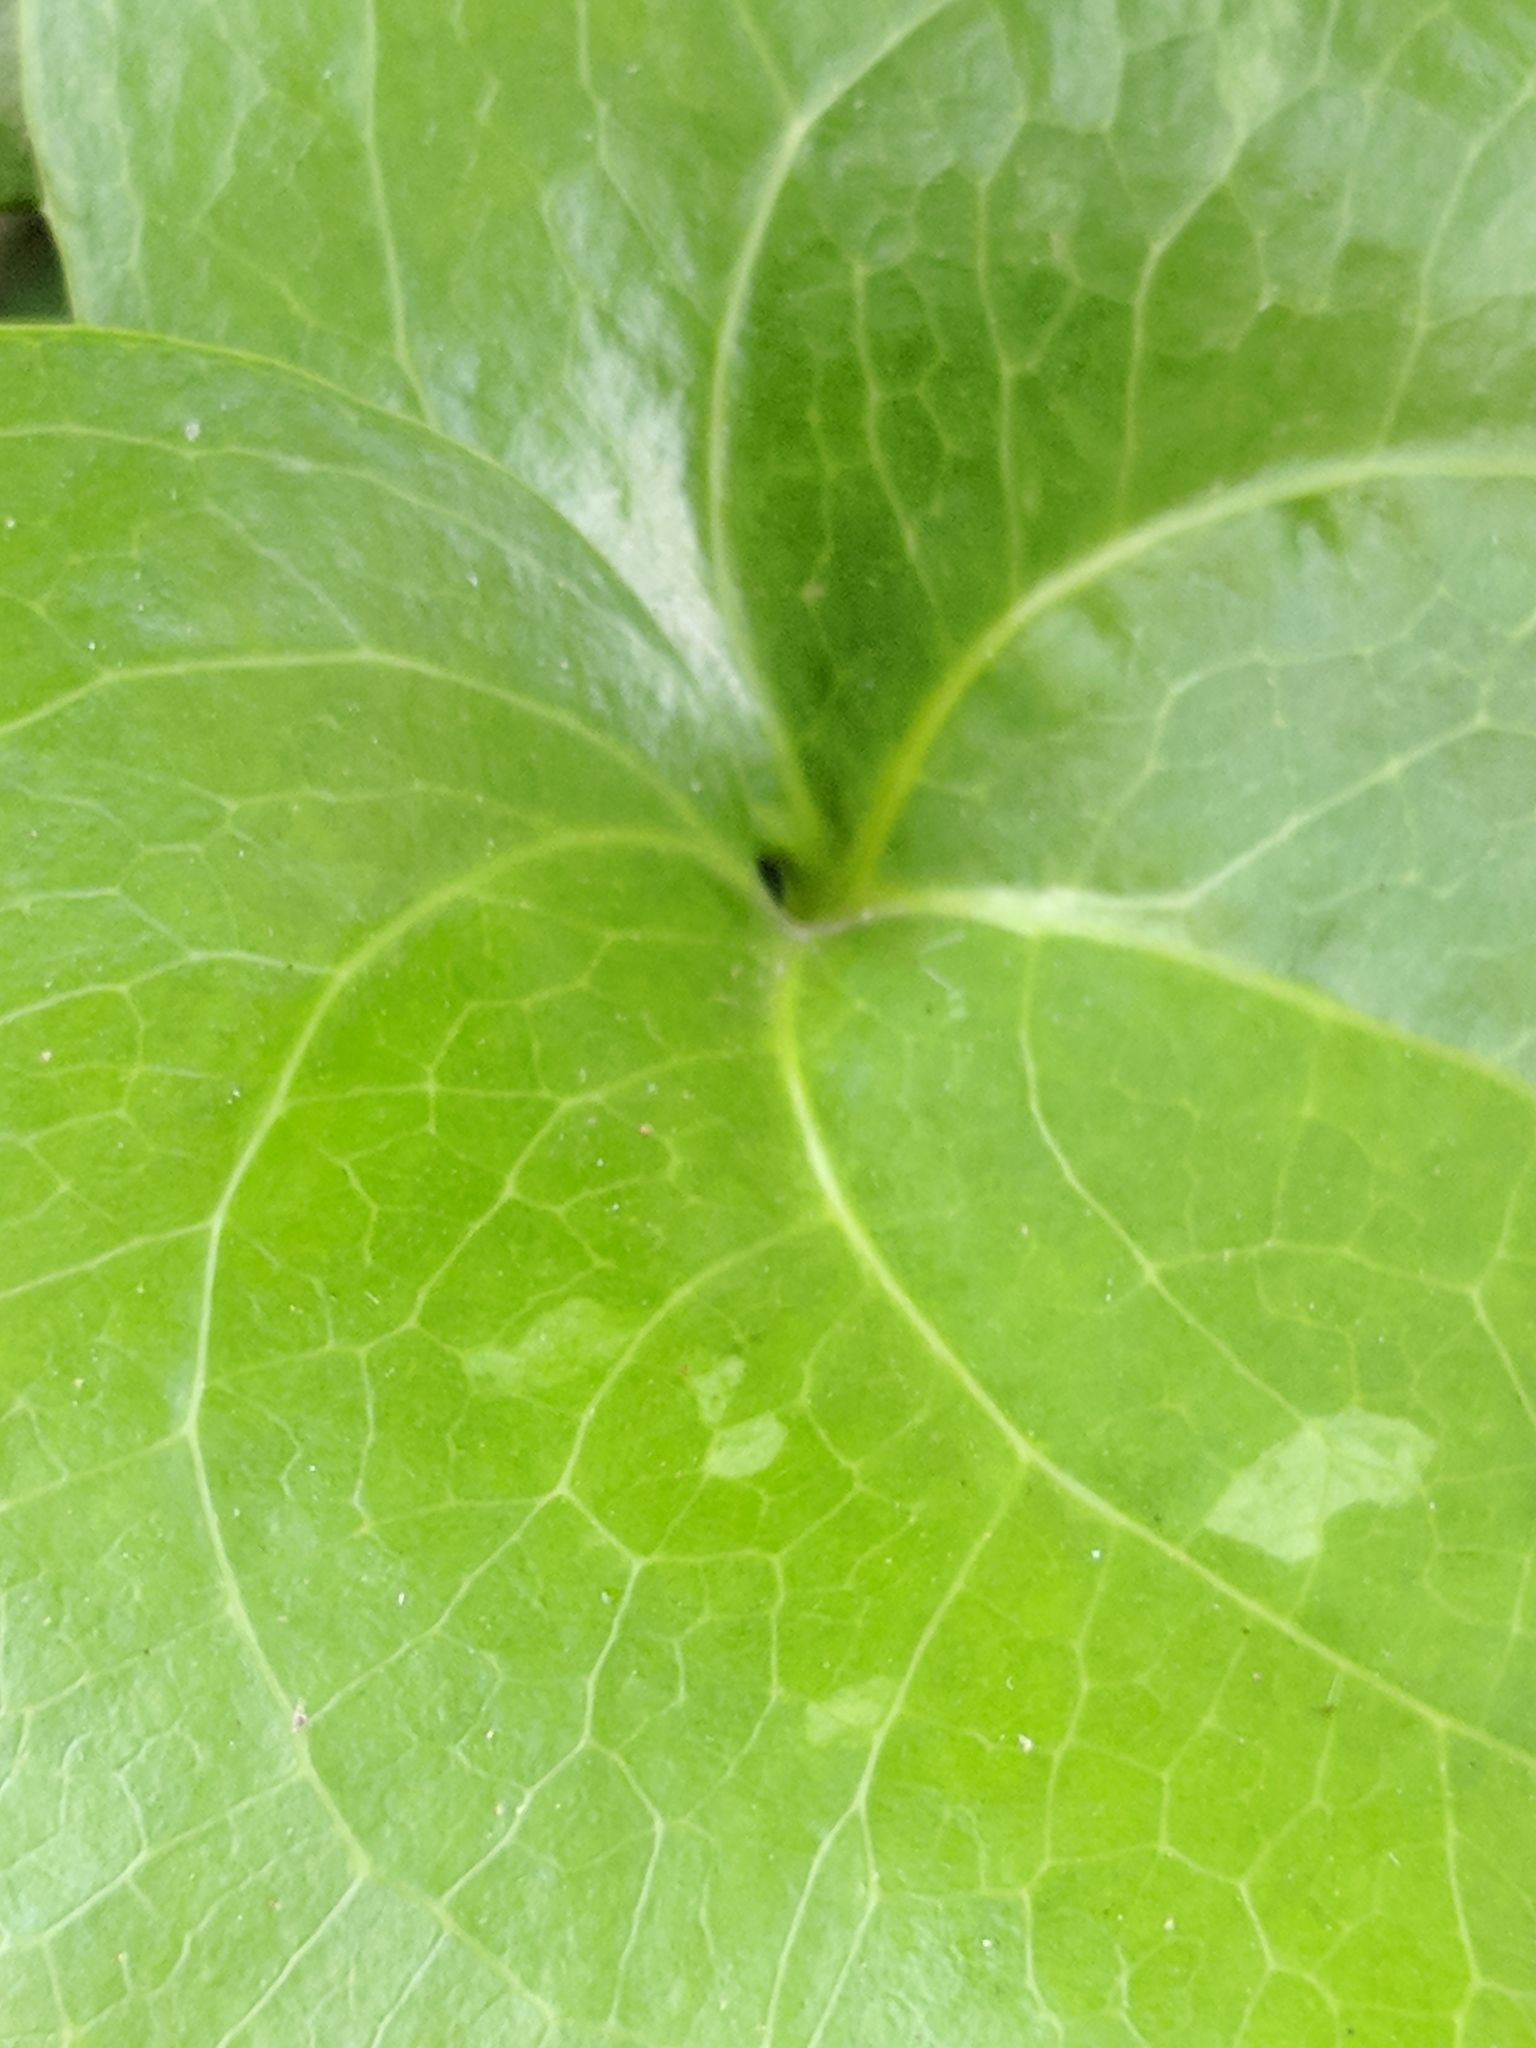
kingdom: Plantae
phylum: Tracheophyta
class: Liliopsida
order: Liliales
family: Smilacaceae
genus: Smilax
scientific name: Smilax bona-nox
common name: Catbrier
